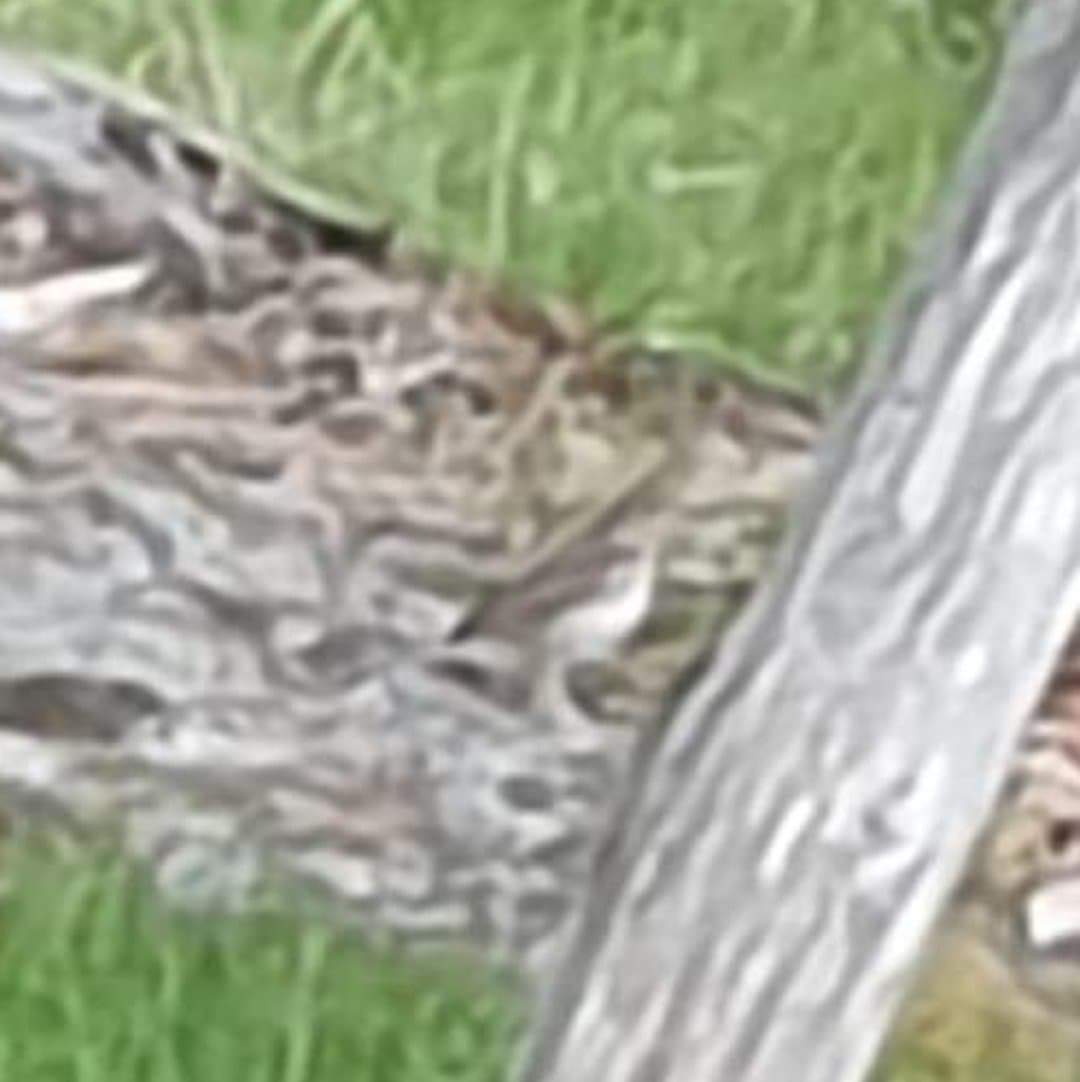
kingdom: Animalia
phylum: Chordata
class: Aves
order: Passeriformes
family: Turdidae
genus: Turdus
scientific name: Turdus philomelos
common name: Song thrush
